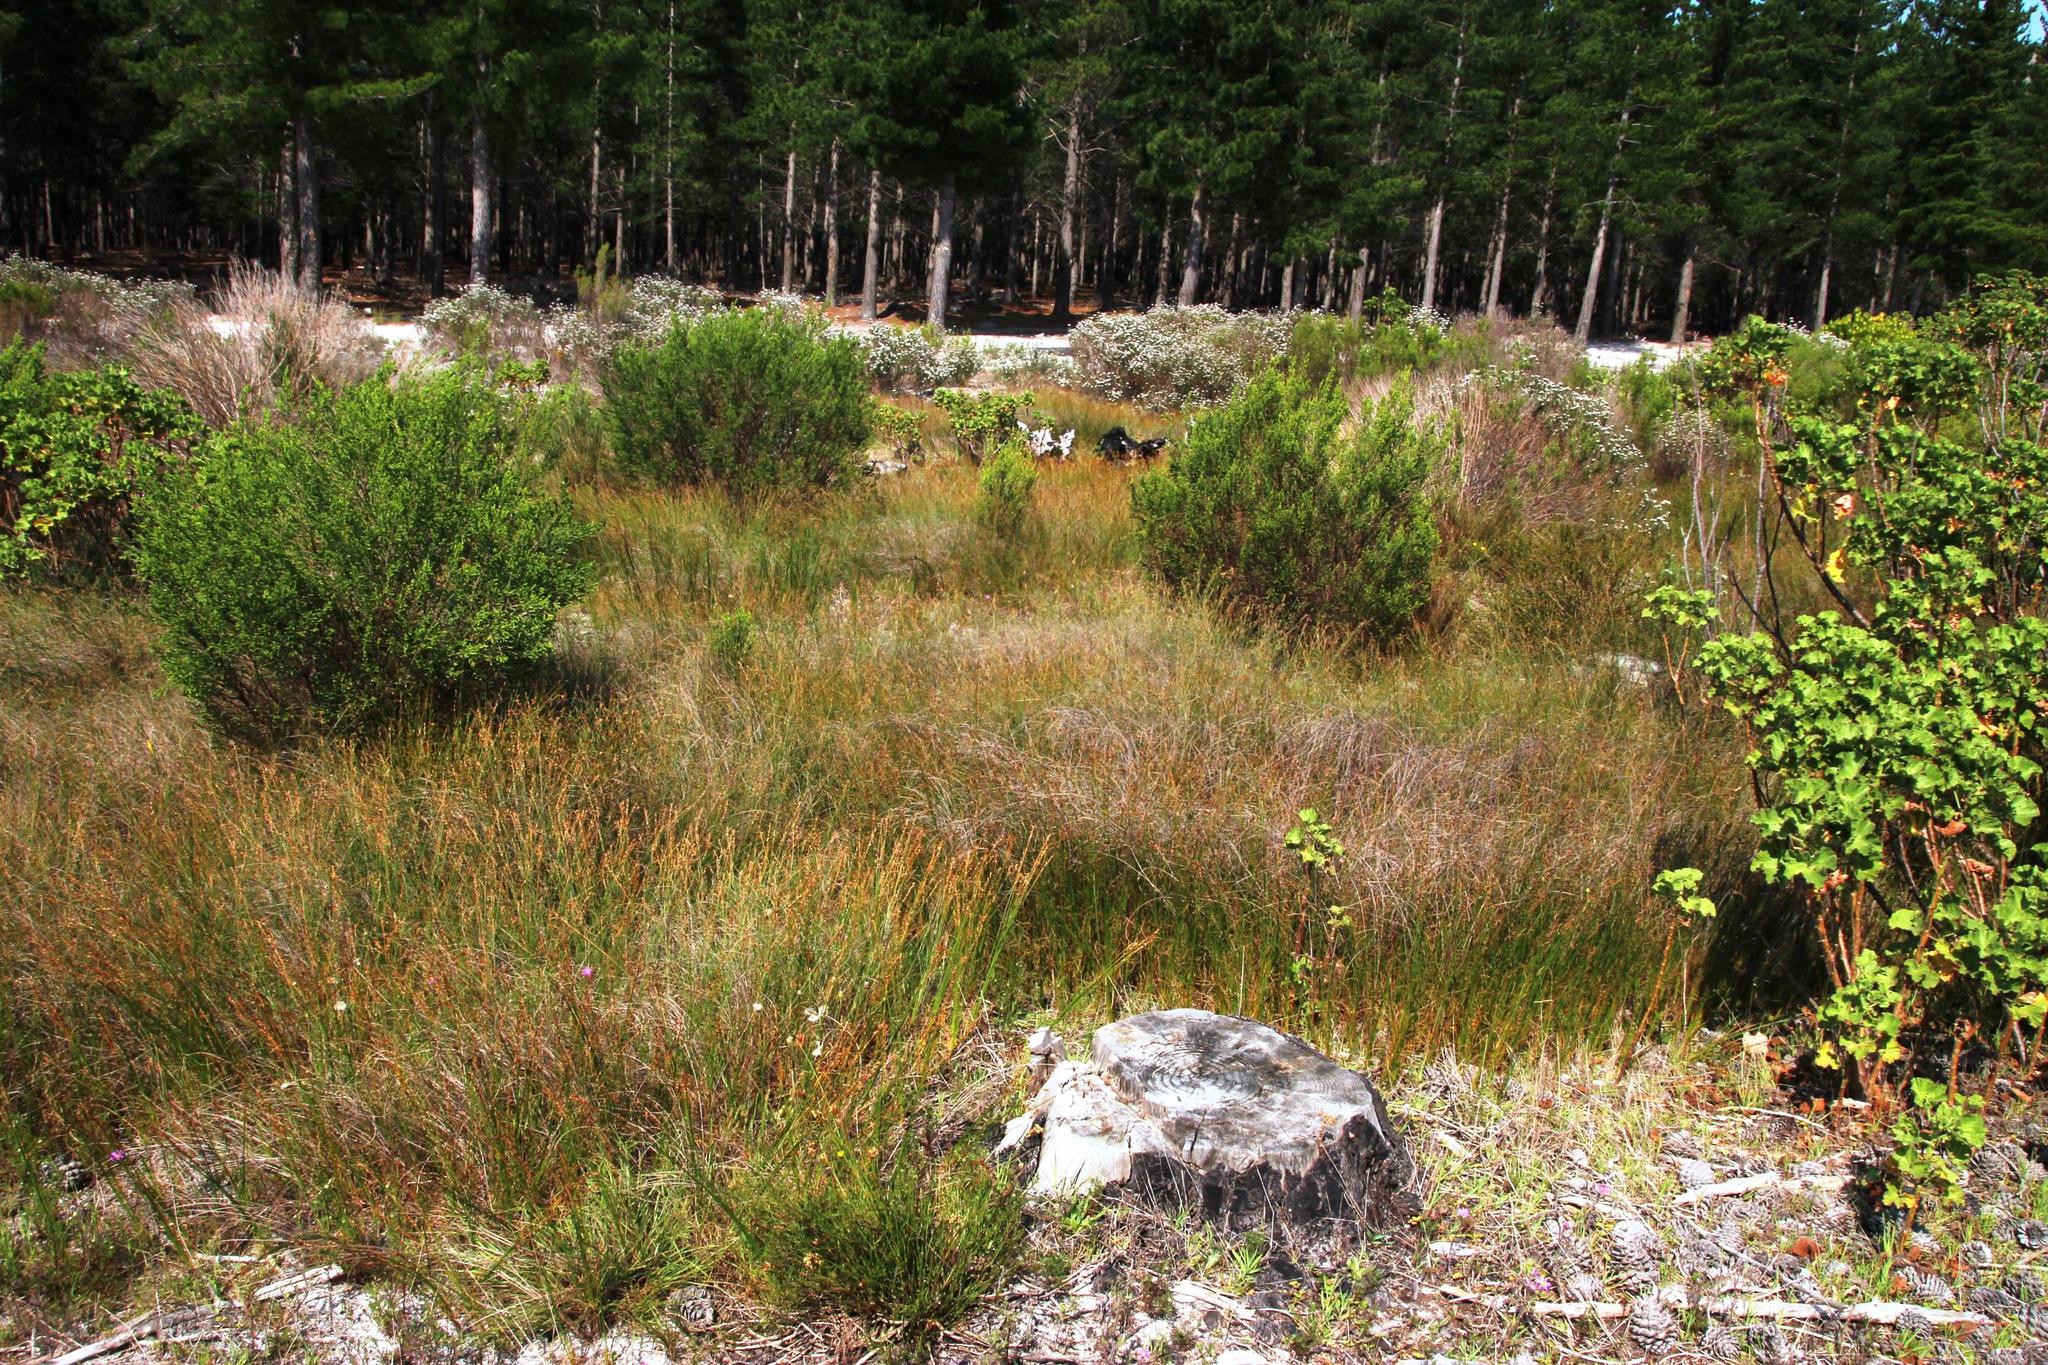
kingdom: Plantae
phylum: Tracheophyta
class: Liliopsida
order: Poales
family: Restionaceae
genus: Willdenowia
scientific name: Willdenowia sulcata
